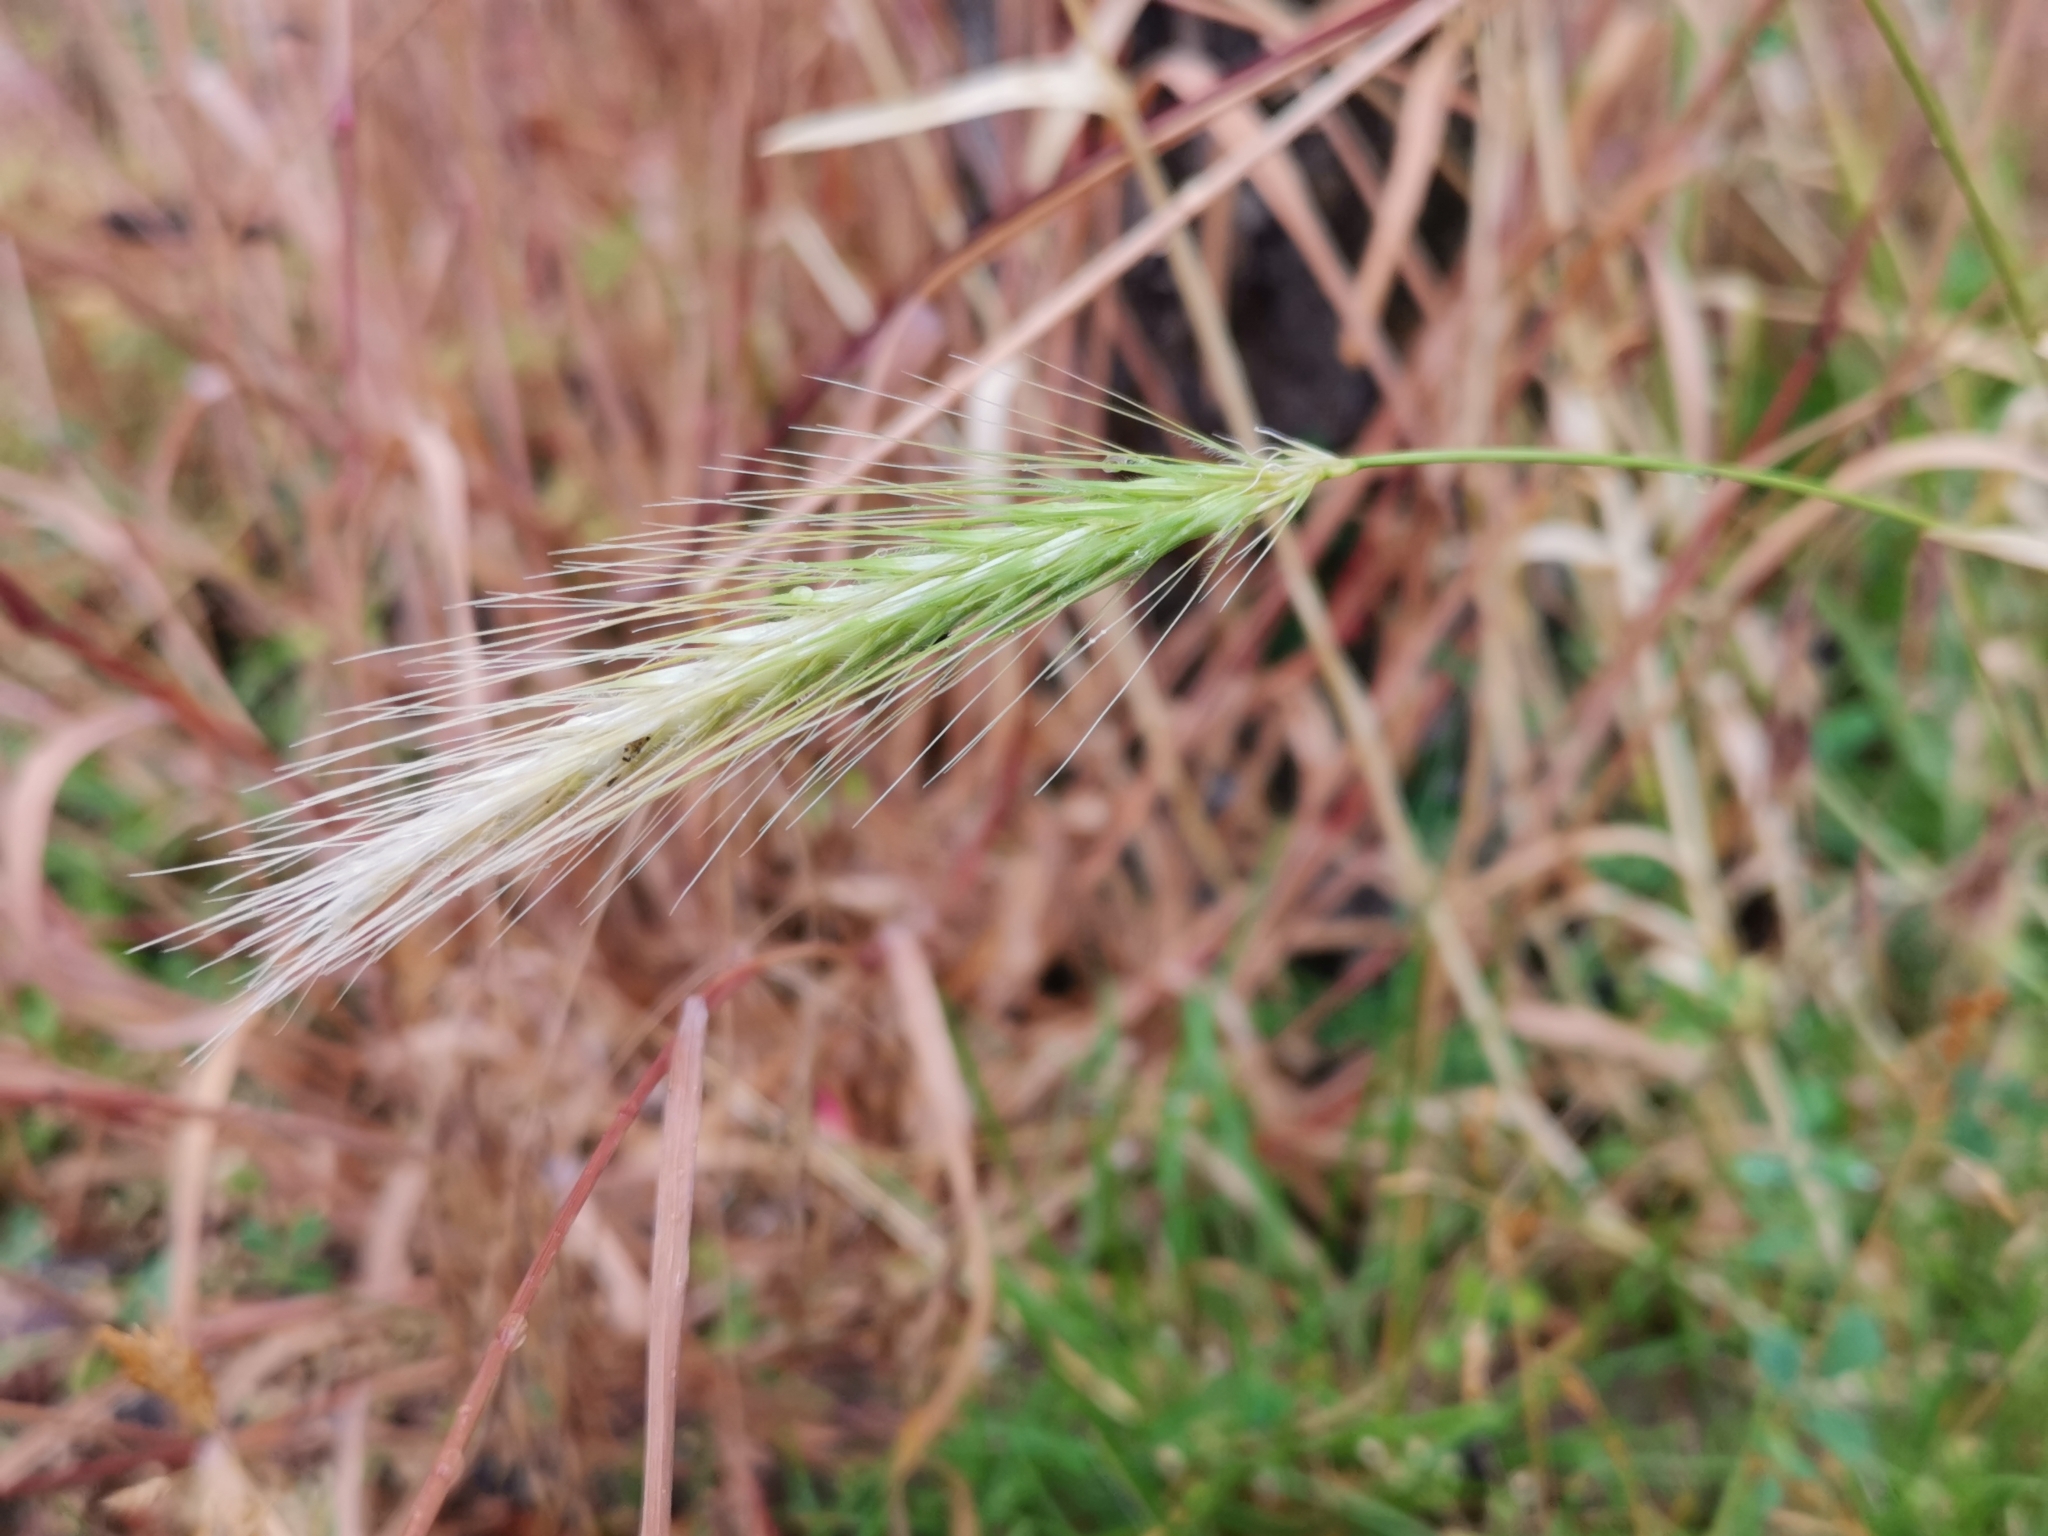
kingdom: Plantae
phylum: Tracheophyta
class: Liliopsida
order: Poales
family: Poaceae
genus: Hordeum
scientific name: Hordeum murinum
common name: Wall barley
